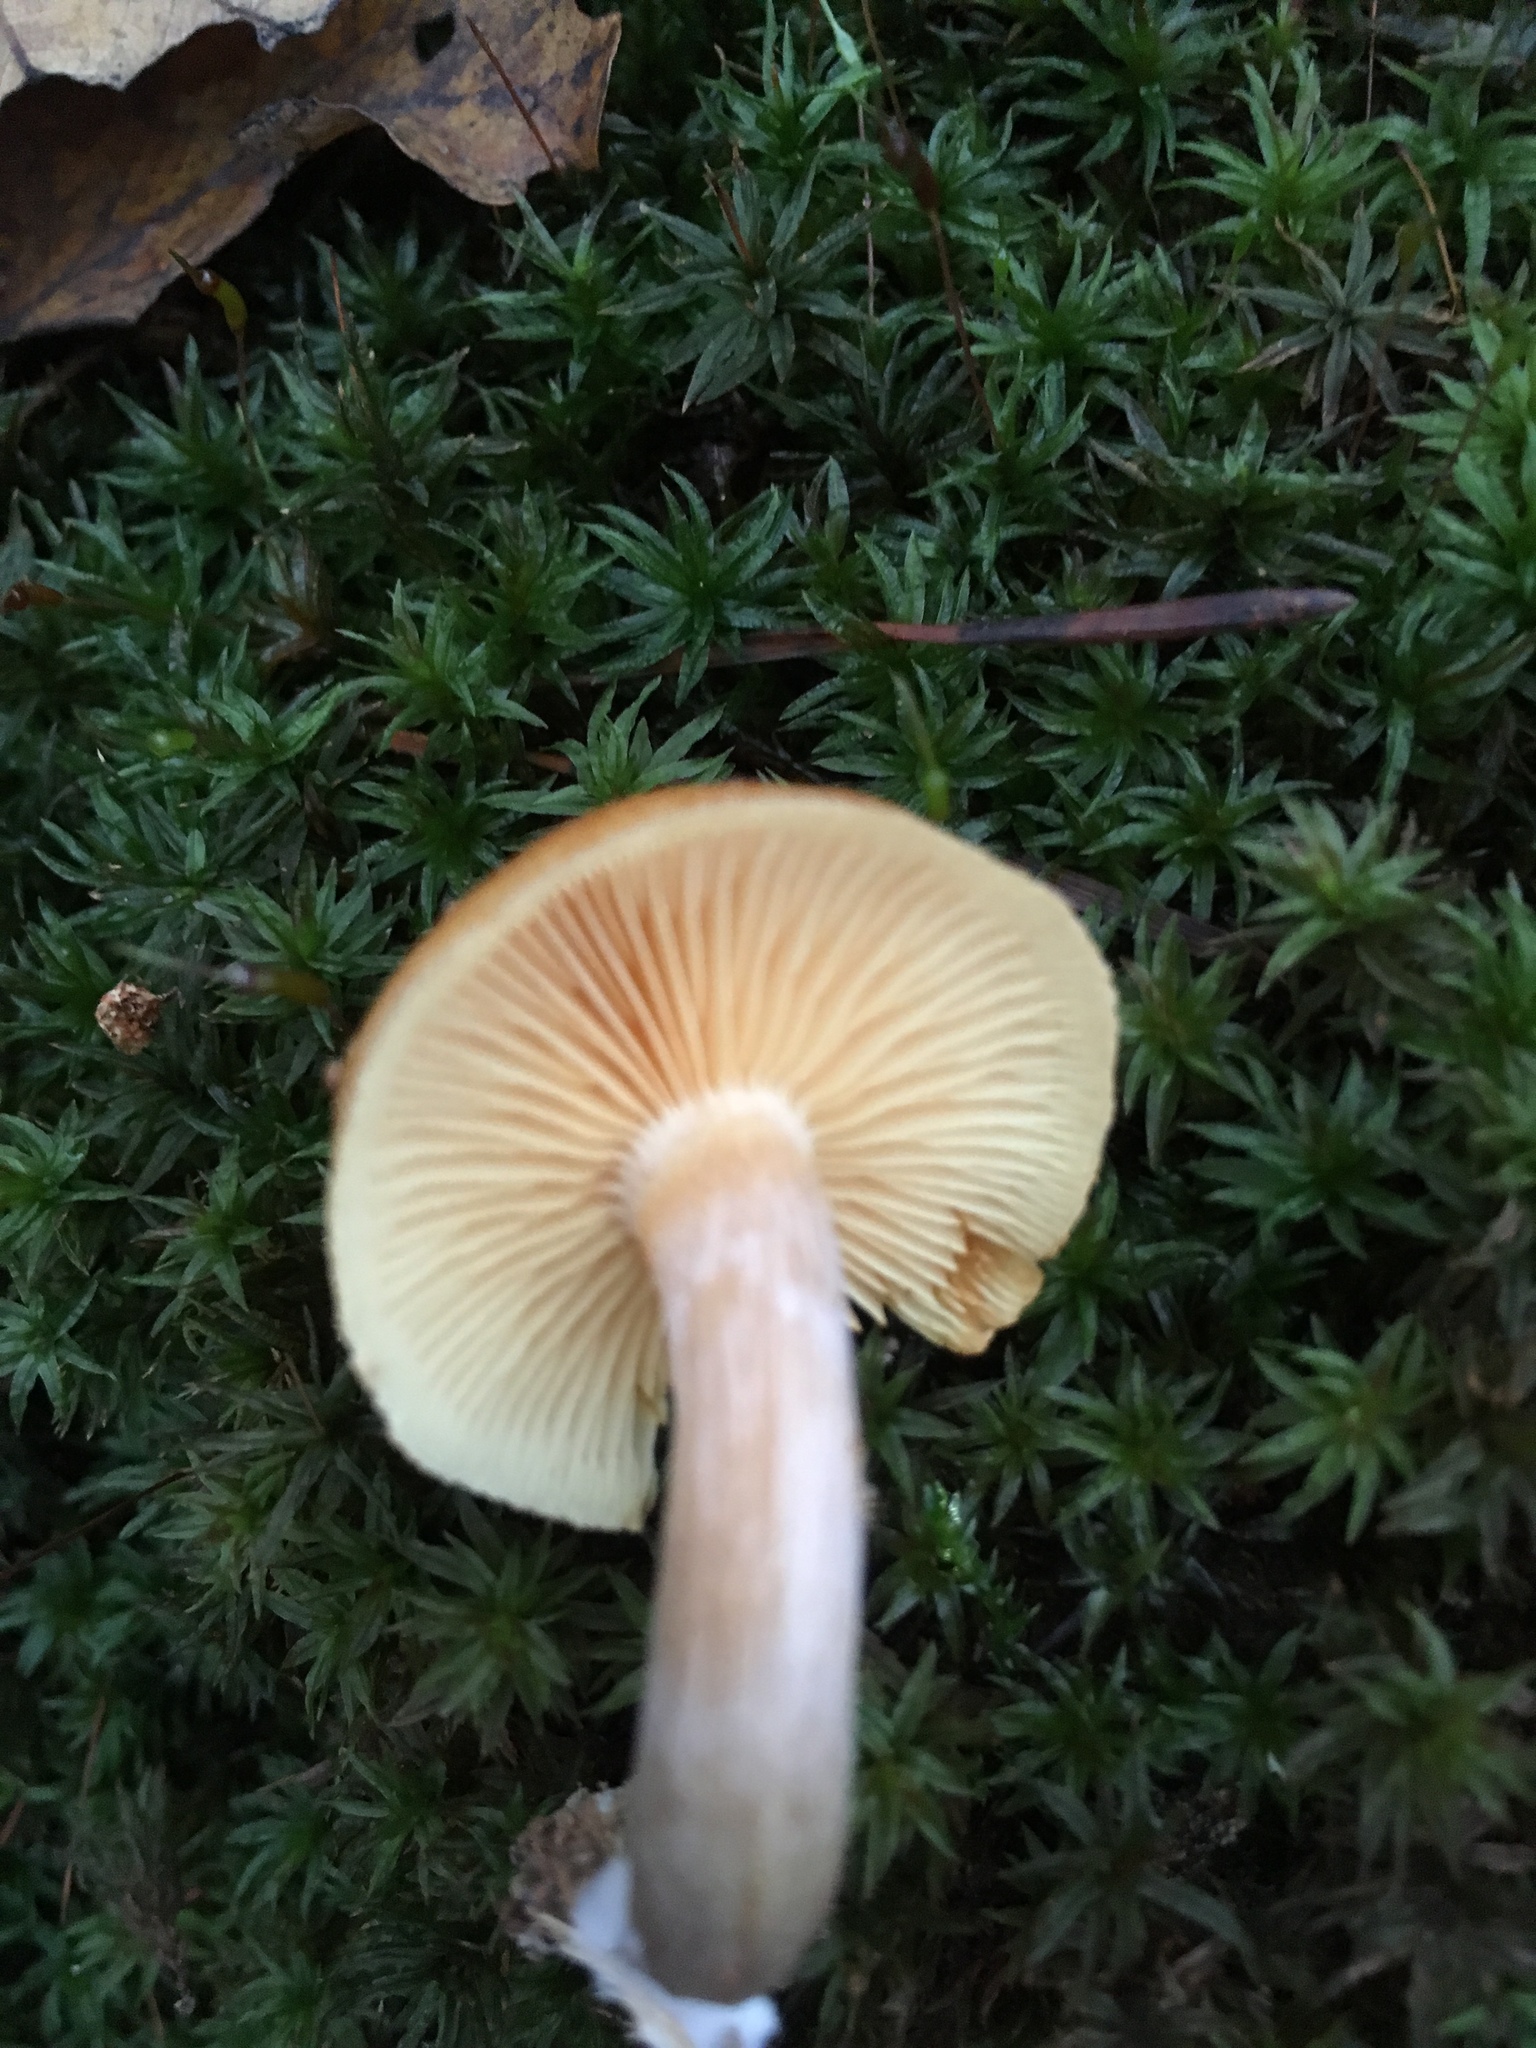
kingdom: Fungi
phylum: Basidiomycota
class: Agaricomycetes
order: Agaricales
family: Hymenogastraceae
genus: Gymnopilus
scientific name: Gymnopilus penetrans
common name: Common rustgill
